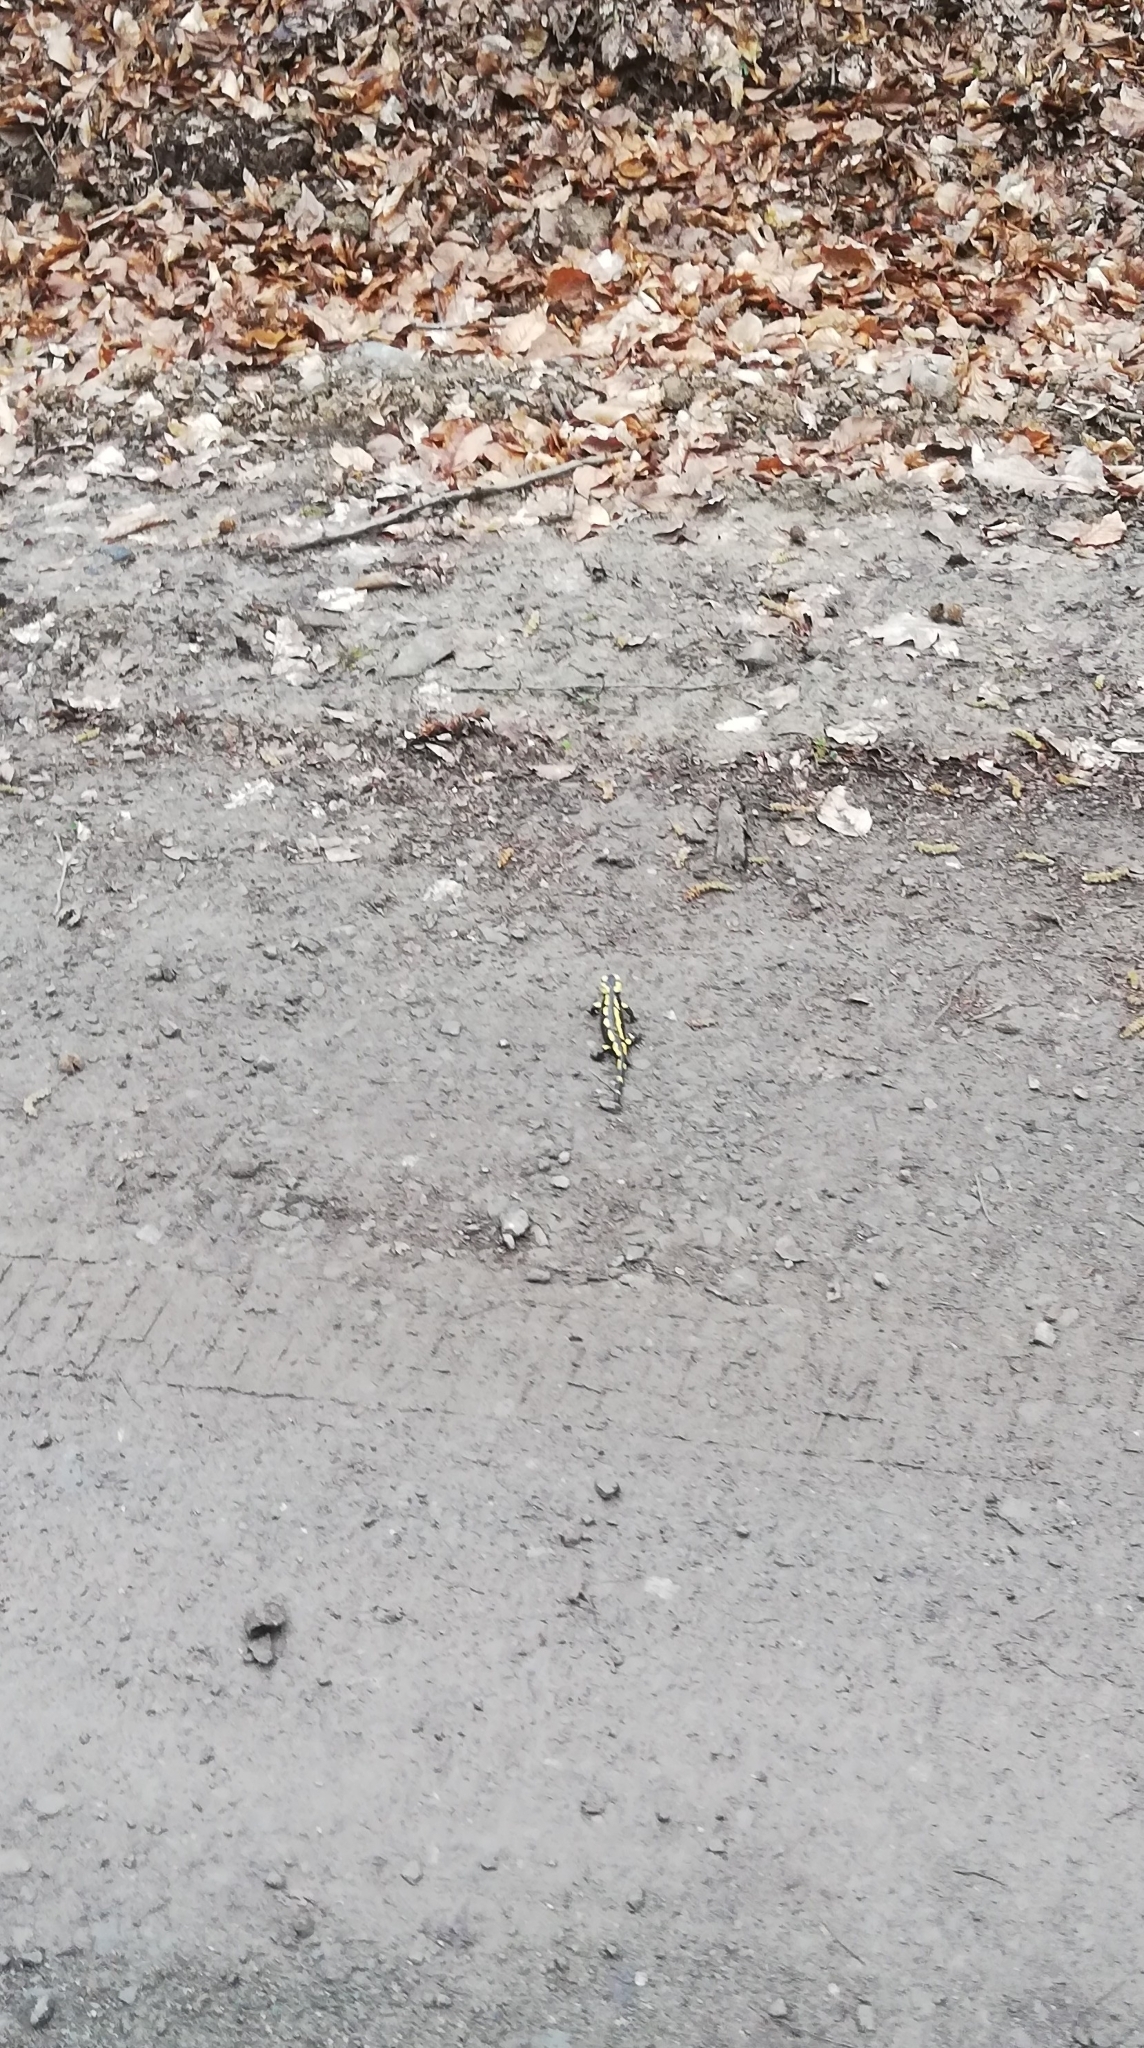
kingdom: Animalia
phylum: Chordata
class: Amphibia
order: Caudata
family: Salamandridae
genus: Salamandra
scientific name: Salamandra salamandra
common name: Fire salamander
